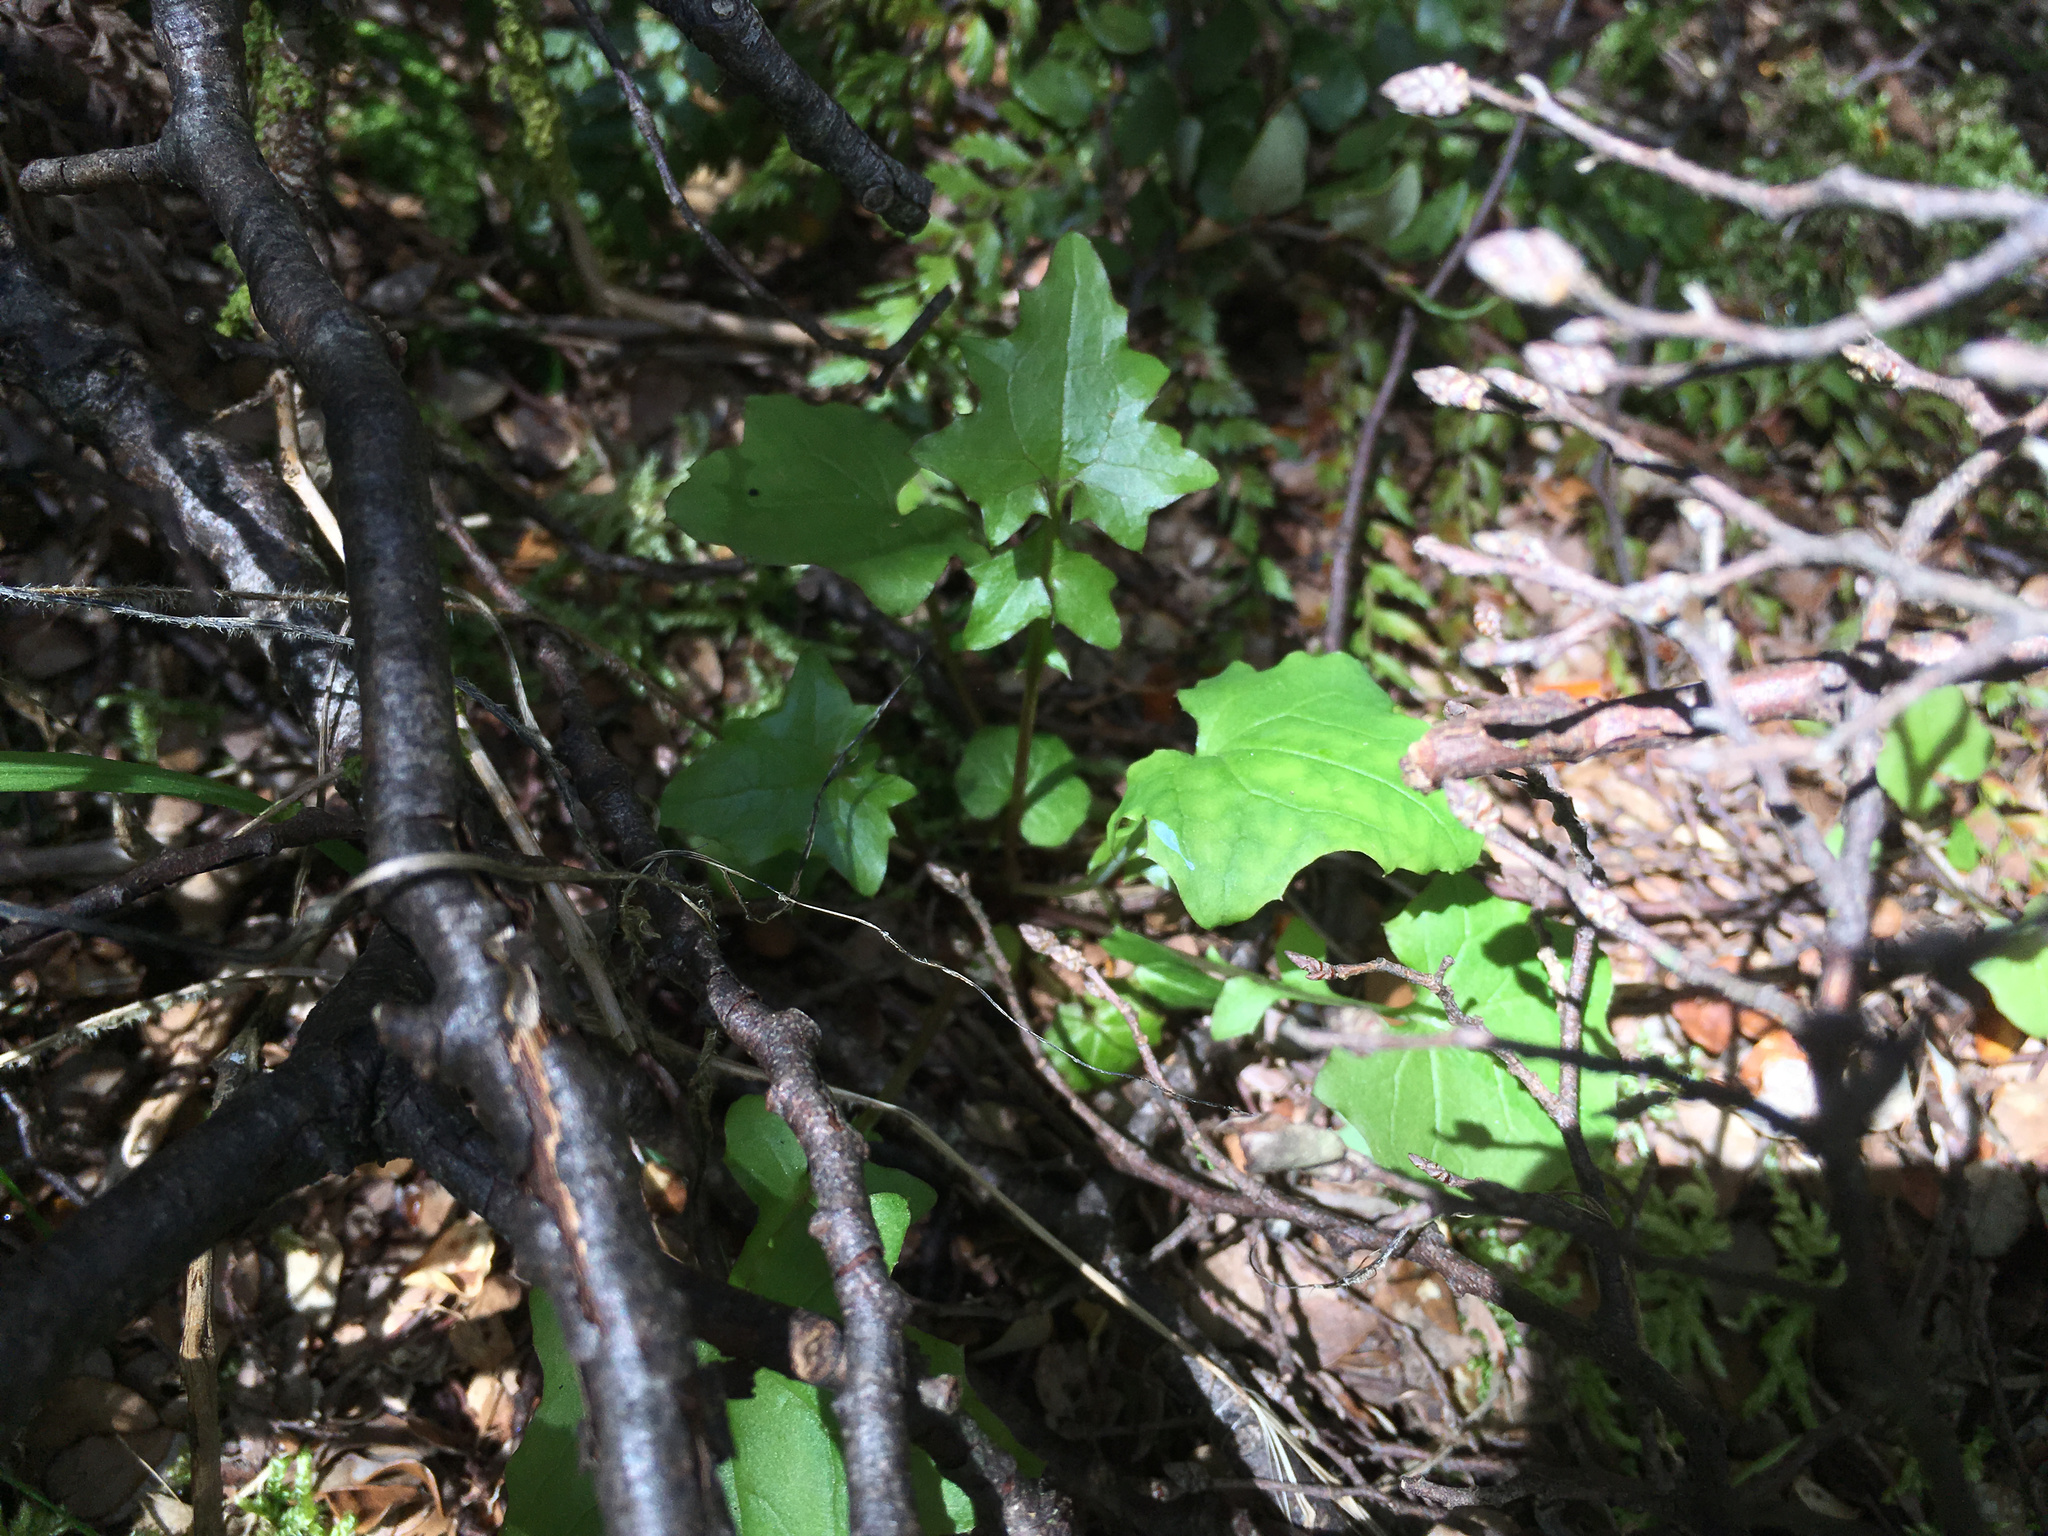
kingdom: Plantae
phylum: Tracheophyta
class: Magnoliopsida
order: Asterales
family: Asteraceae
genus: Mycelis
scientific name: Mycelis muralis
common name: Wall lettuce
